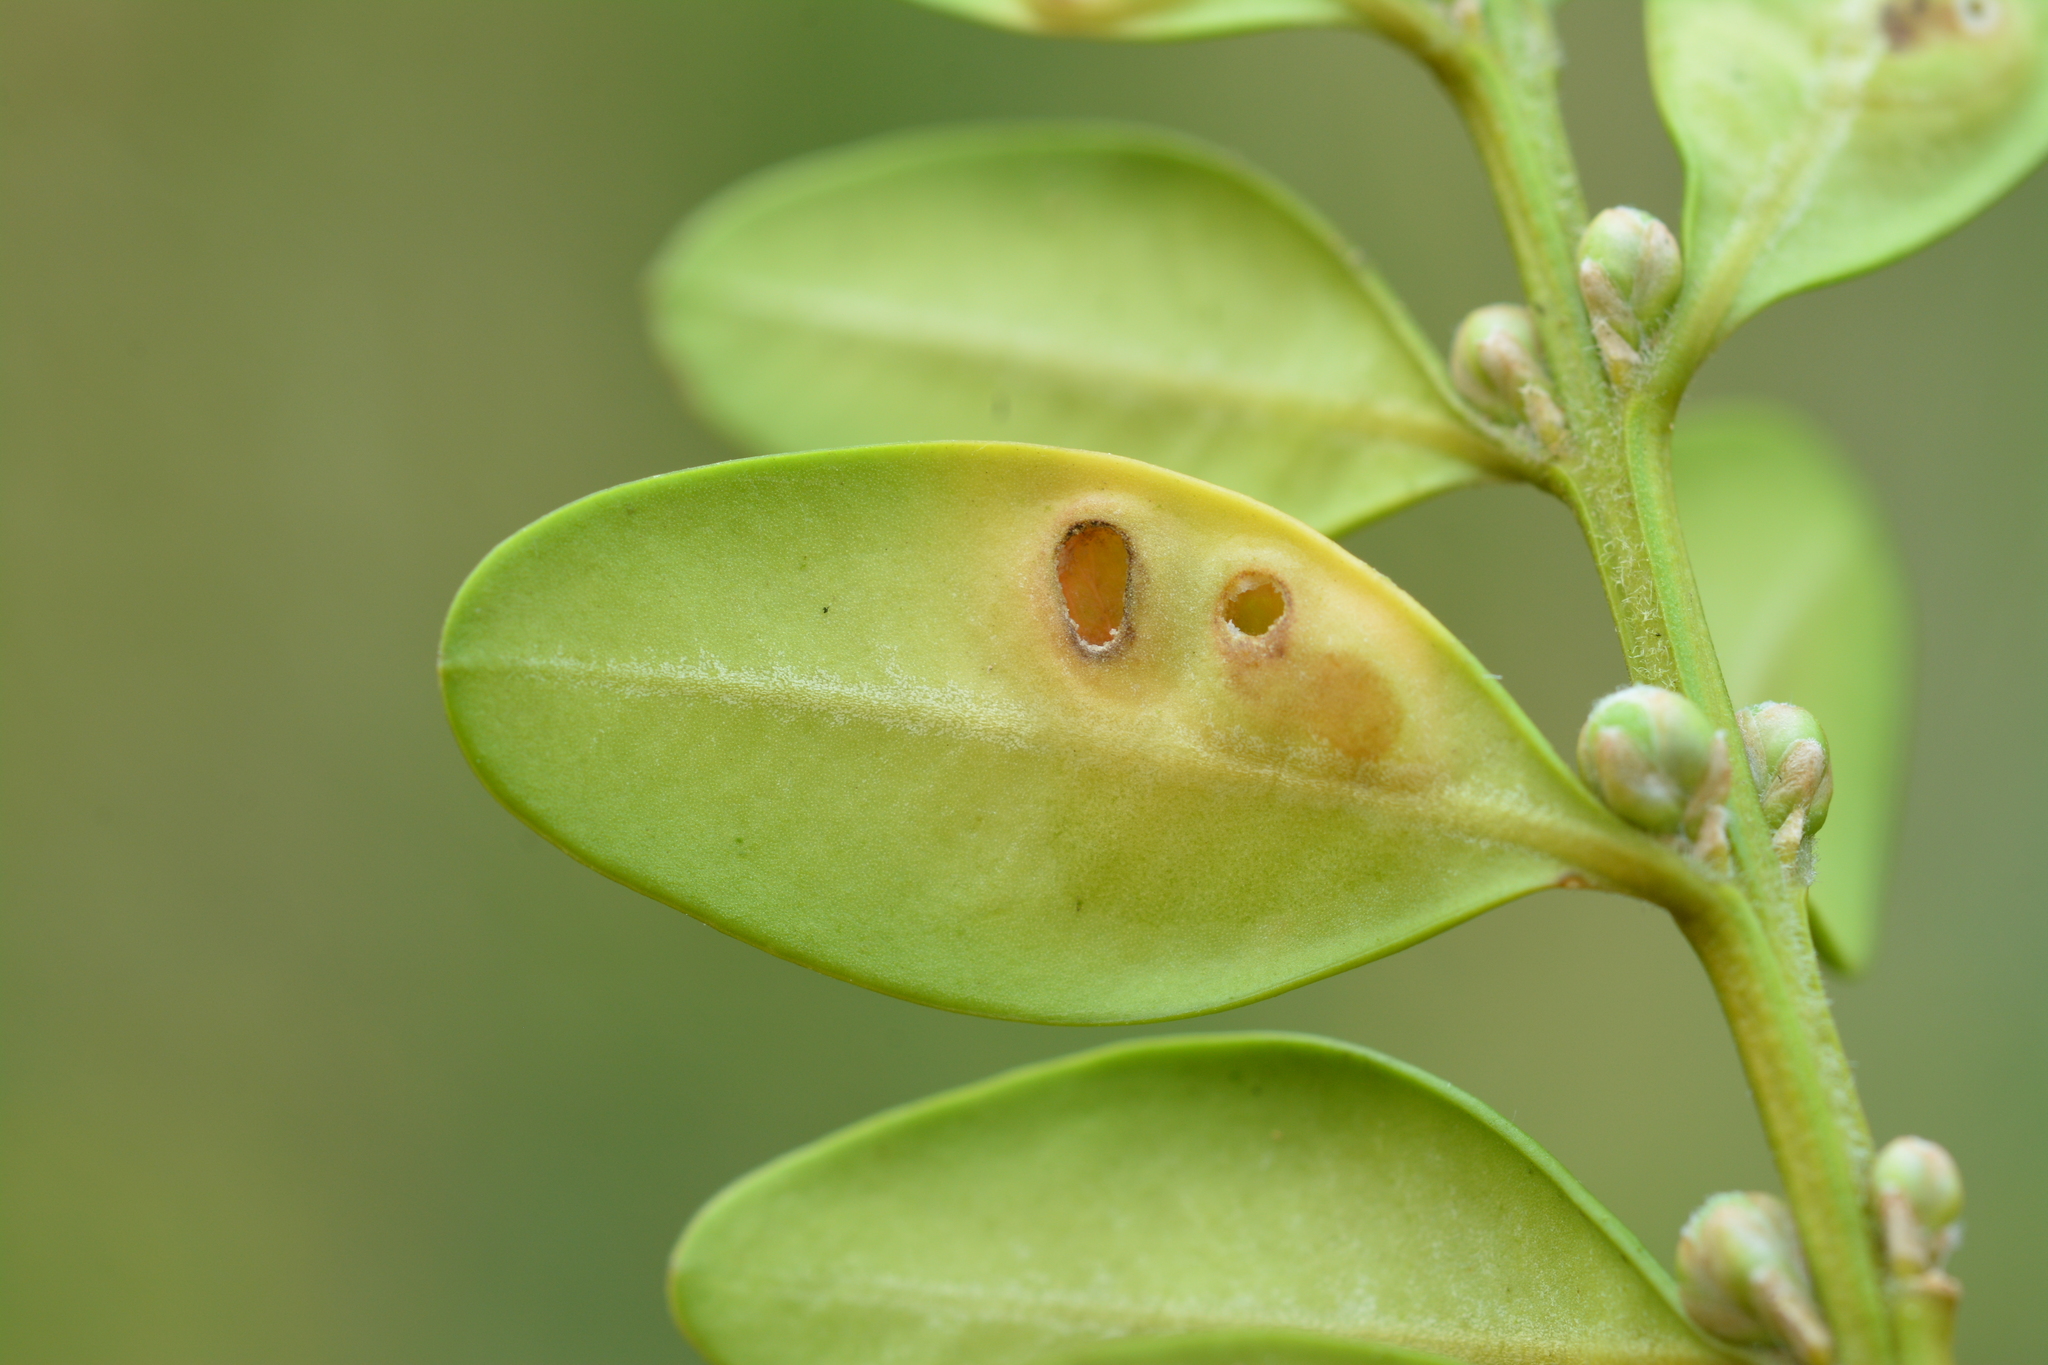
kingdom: Animalia
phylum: Arthropoda
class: Insecta
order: Diptera
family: Cecidomyiidae
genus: Monarthropalpus
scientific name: Monarthropalpus flavus
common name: Boxwood leafminer
